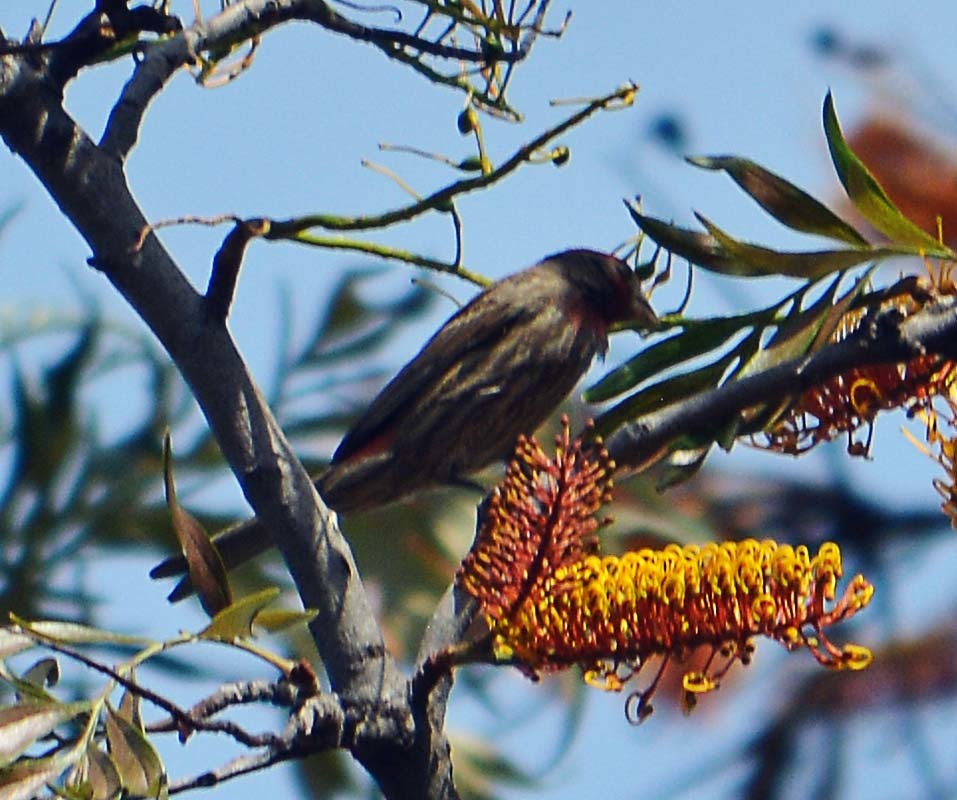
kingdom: Animalia
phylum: Chordata
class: Aves
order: Passeriformes
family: Fringillidae
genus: Haemorhous
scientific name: Haemorhous mexicanus
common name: House finch
